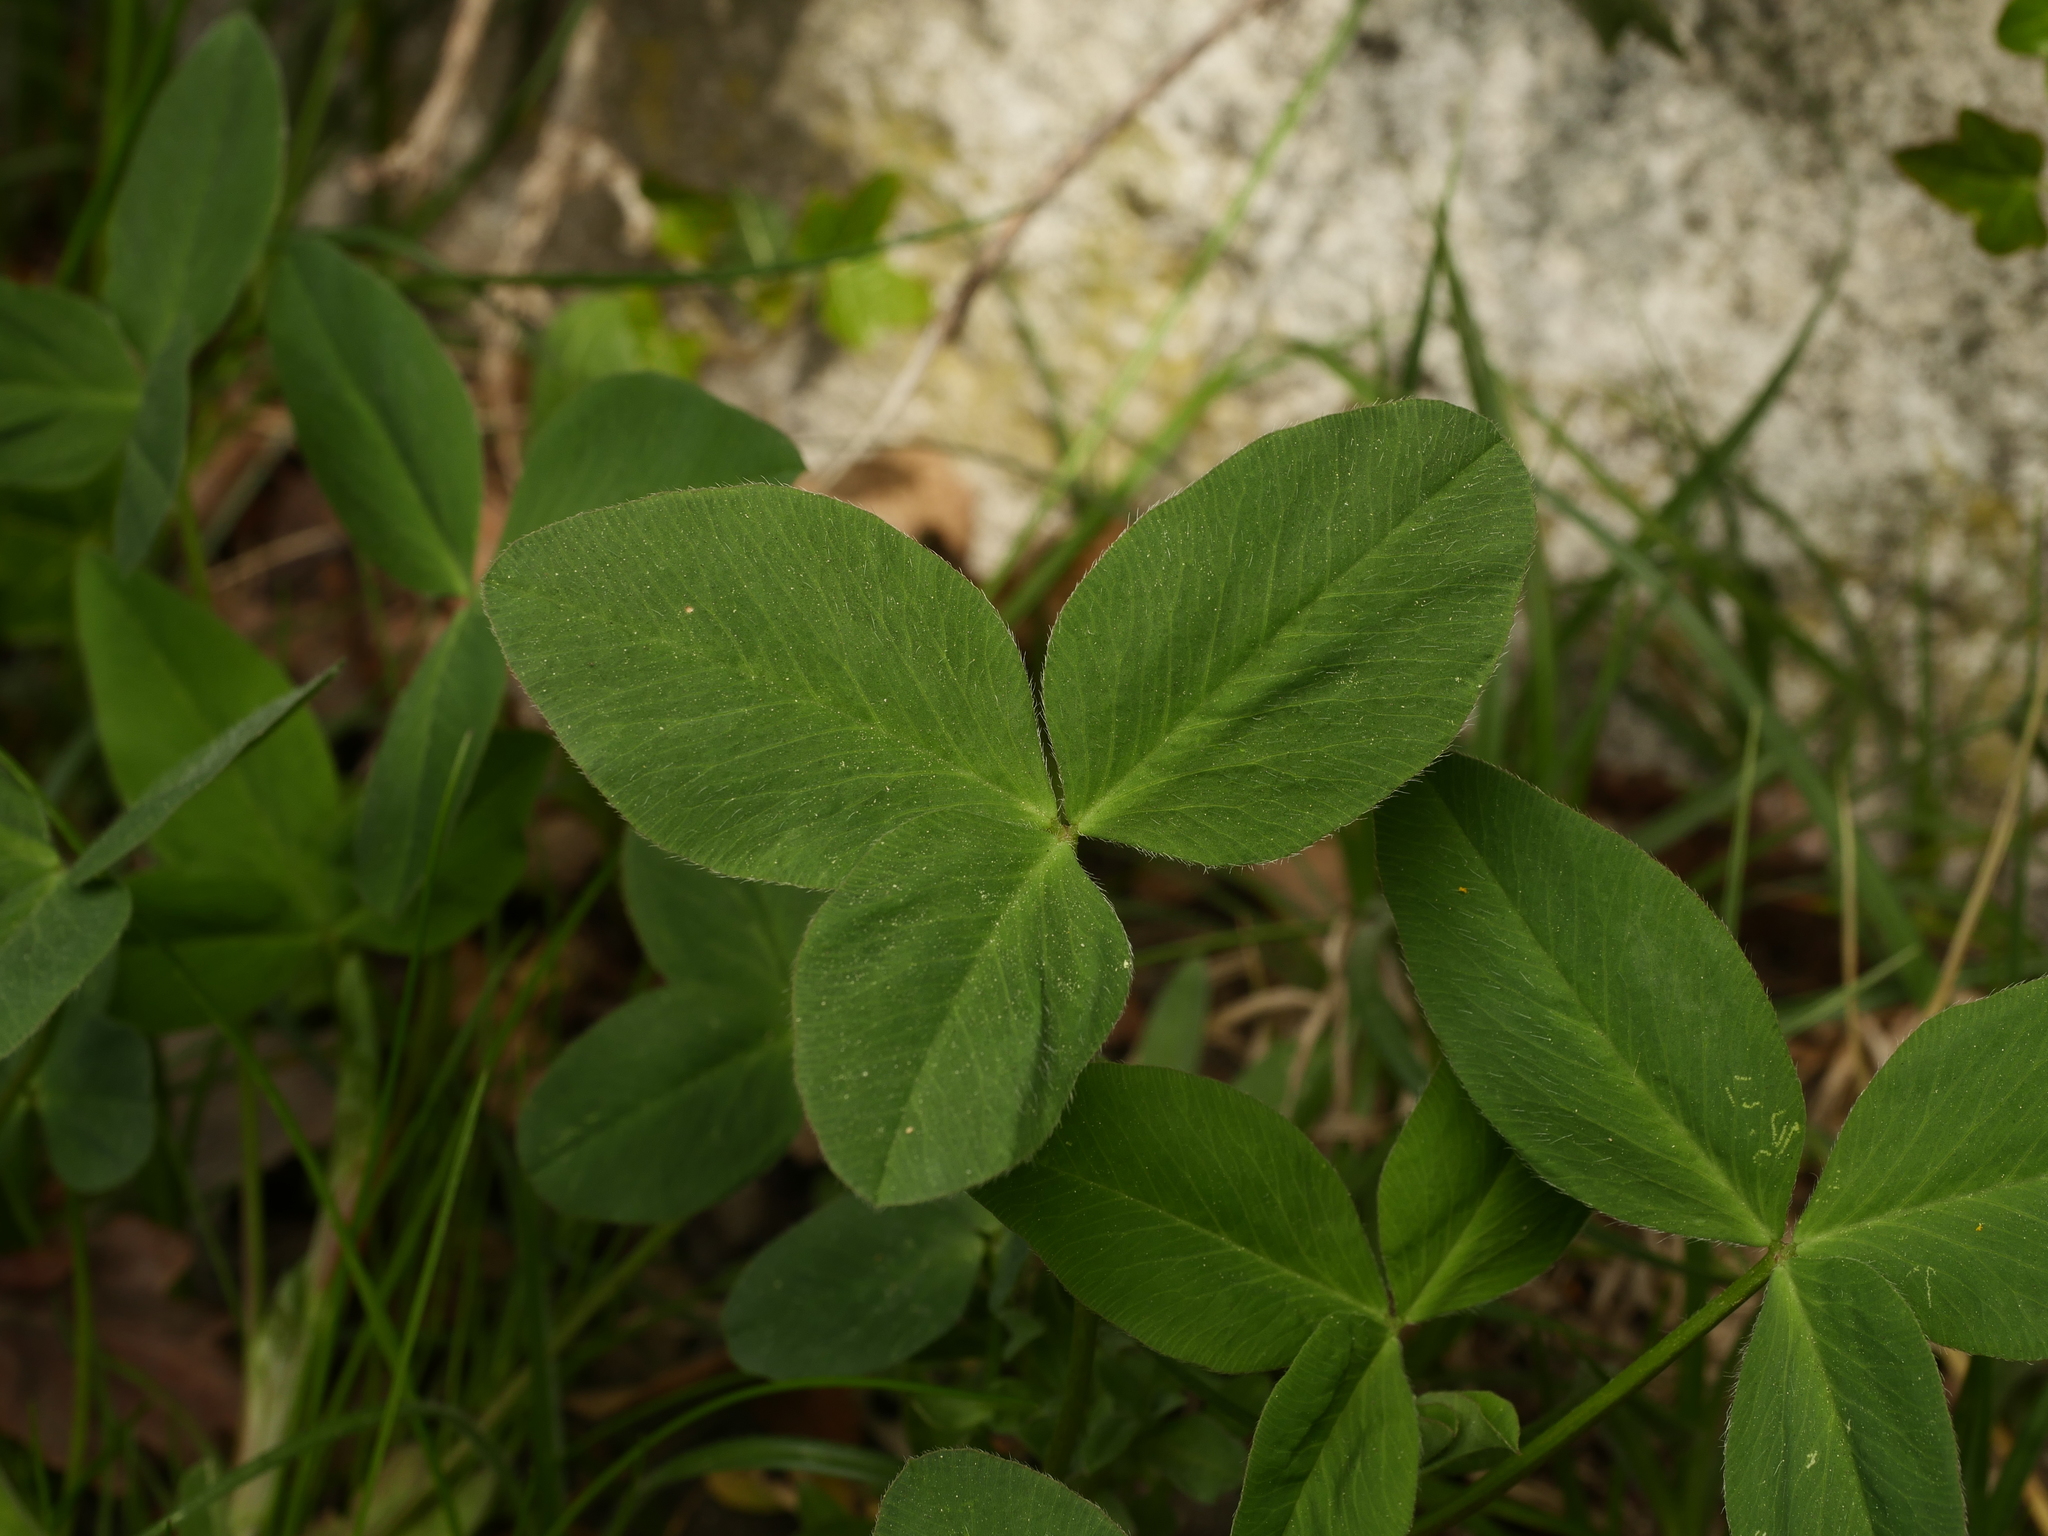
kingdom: Plantae
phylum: Tracheophyta
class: Magnoliopsida
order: Fabales
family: Fabaceae
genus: Trifolium
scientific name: Trifolium pratense
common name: Red clover
